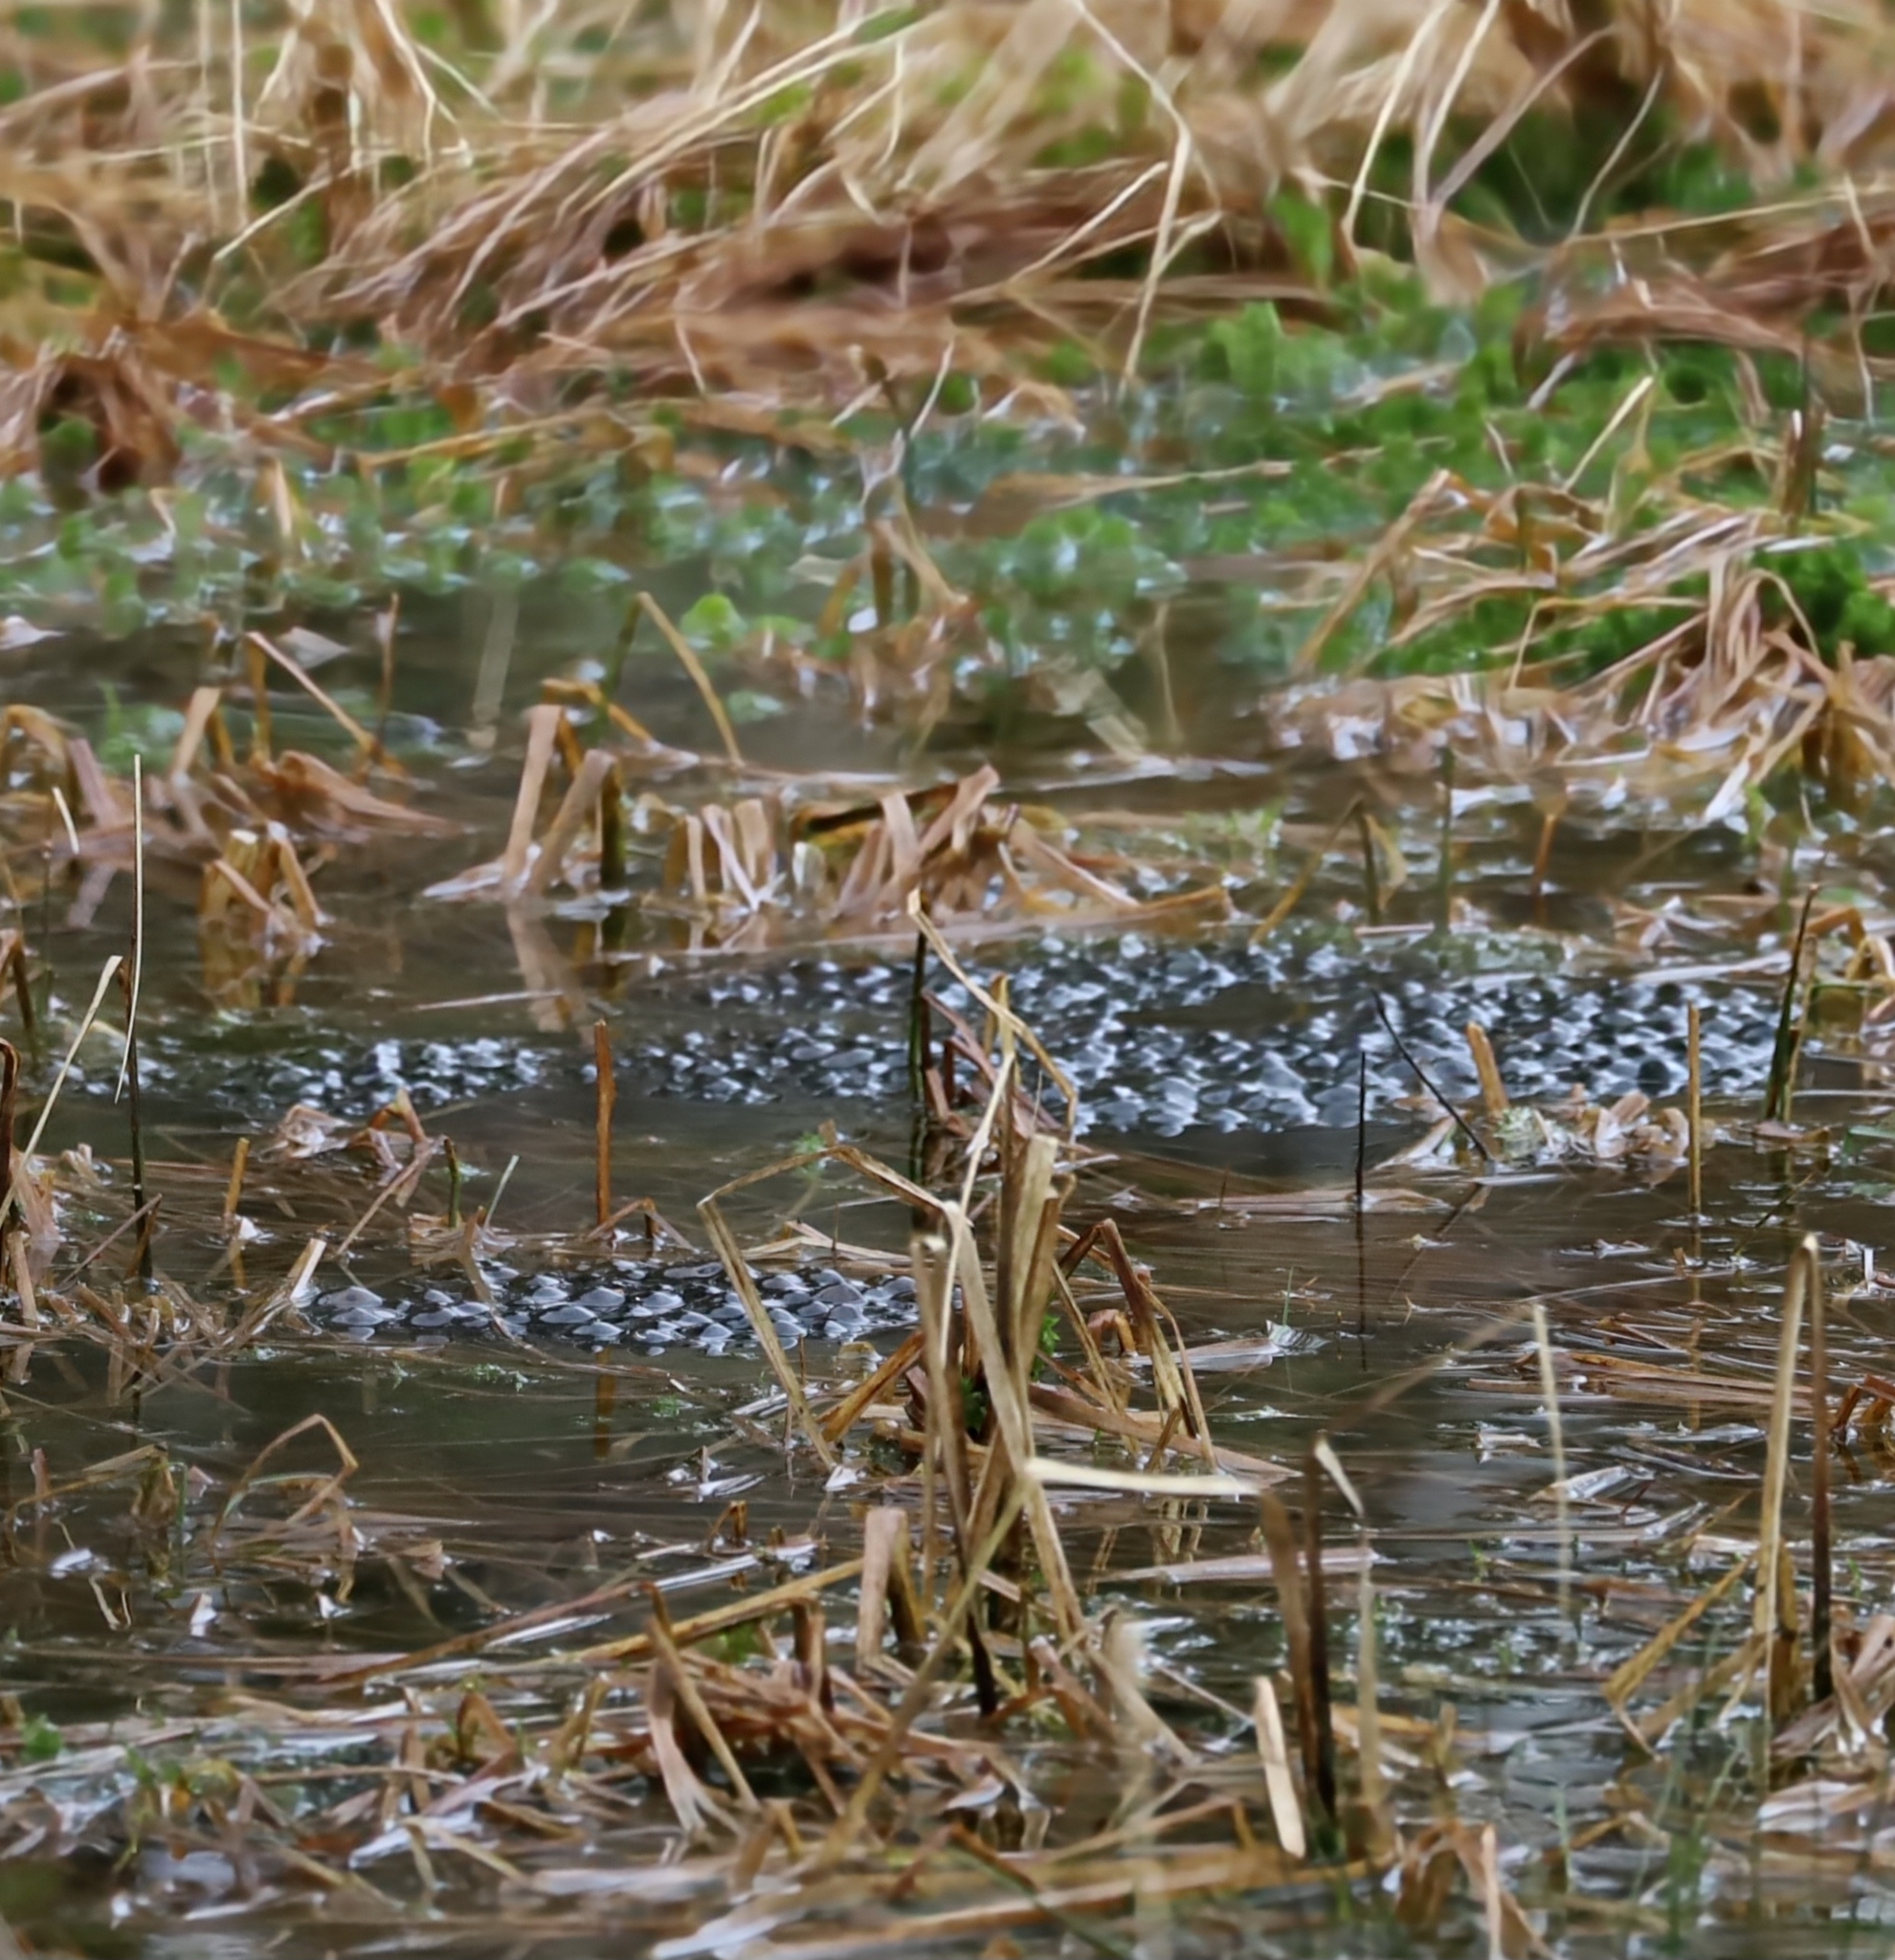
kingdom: Animalia
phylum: Chordata
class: Amphibia
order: Anura
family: Ranidae
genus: Rana
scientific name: Rana temporaria
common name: Common frog
